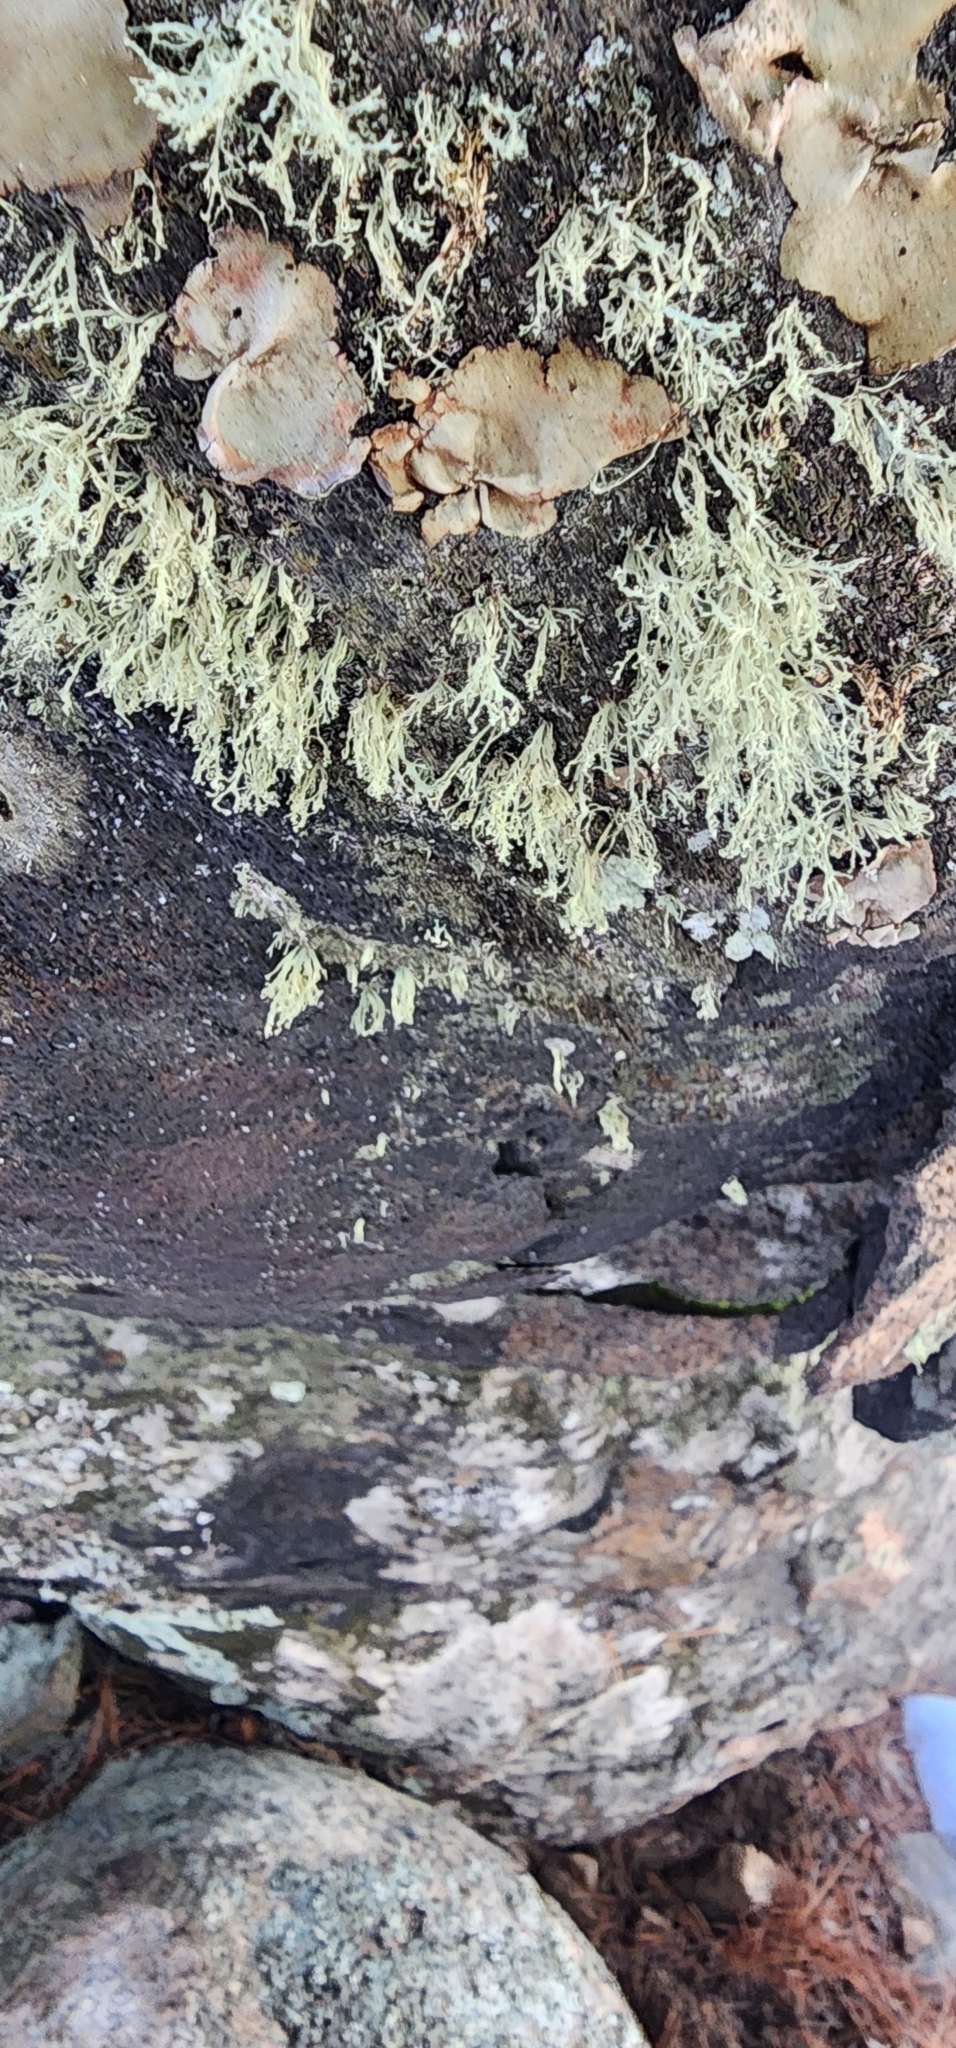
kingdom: Fungi
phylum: Ascomycota
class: Lecanoromycetes
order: Lecanorales
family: Ramalinaceae
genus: Ramalina
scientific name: Ramalina intermedia
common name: Rock bushy lichen
